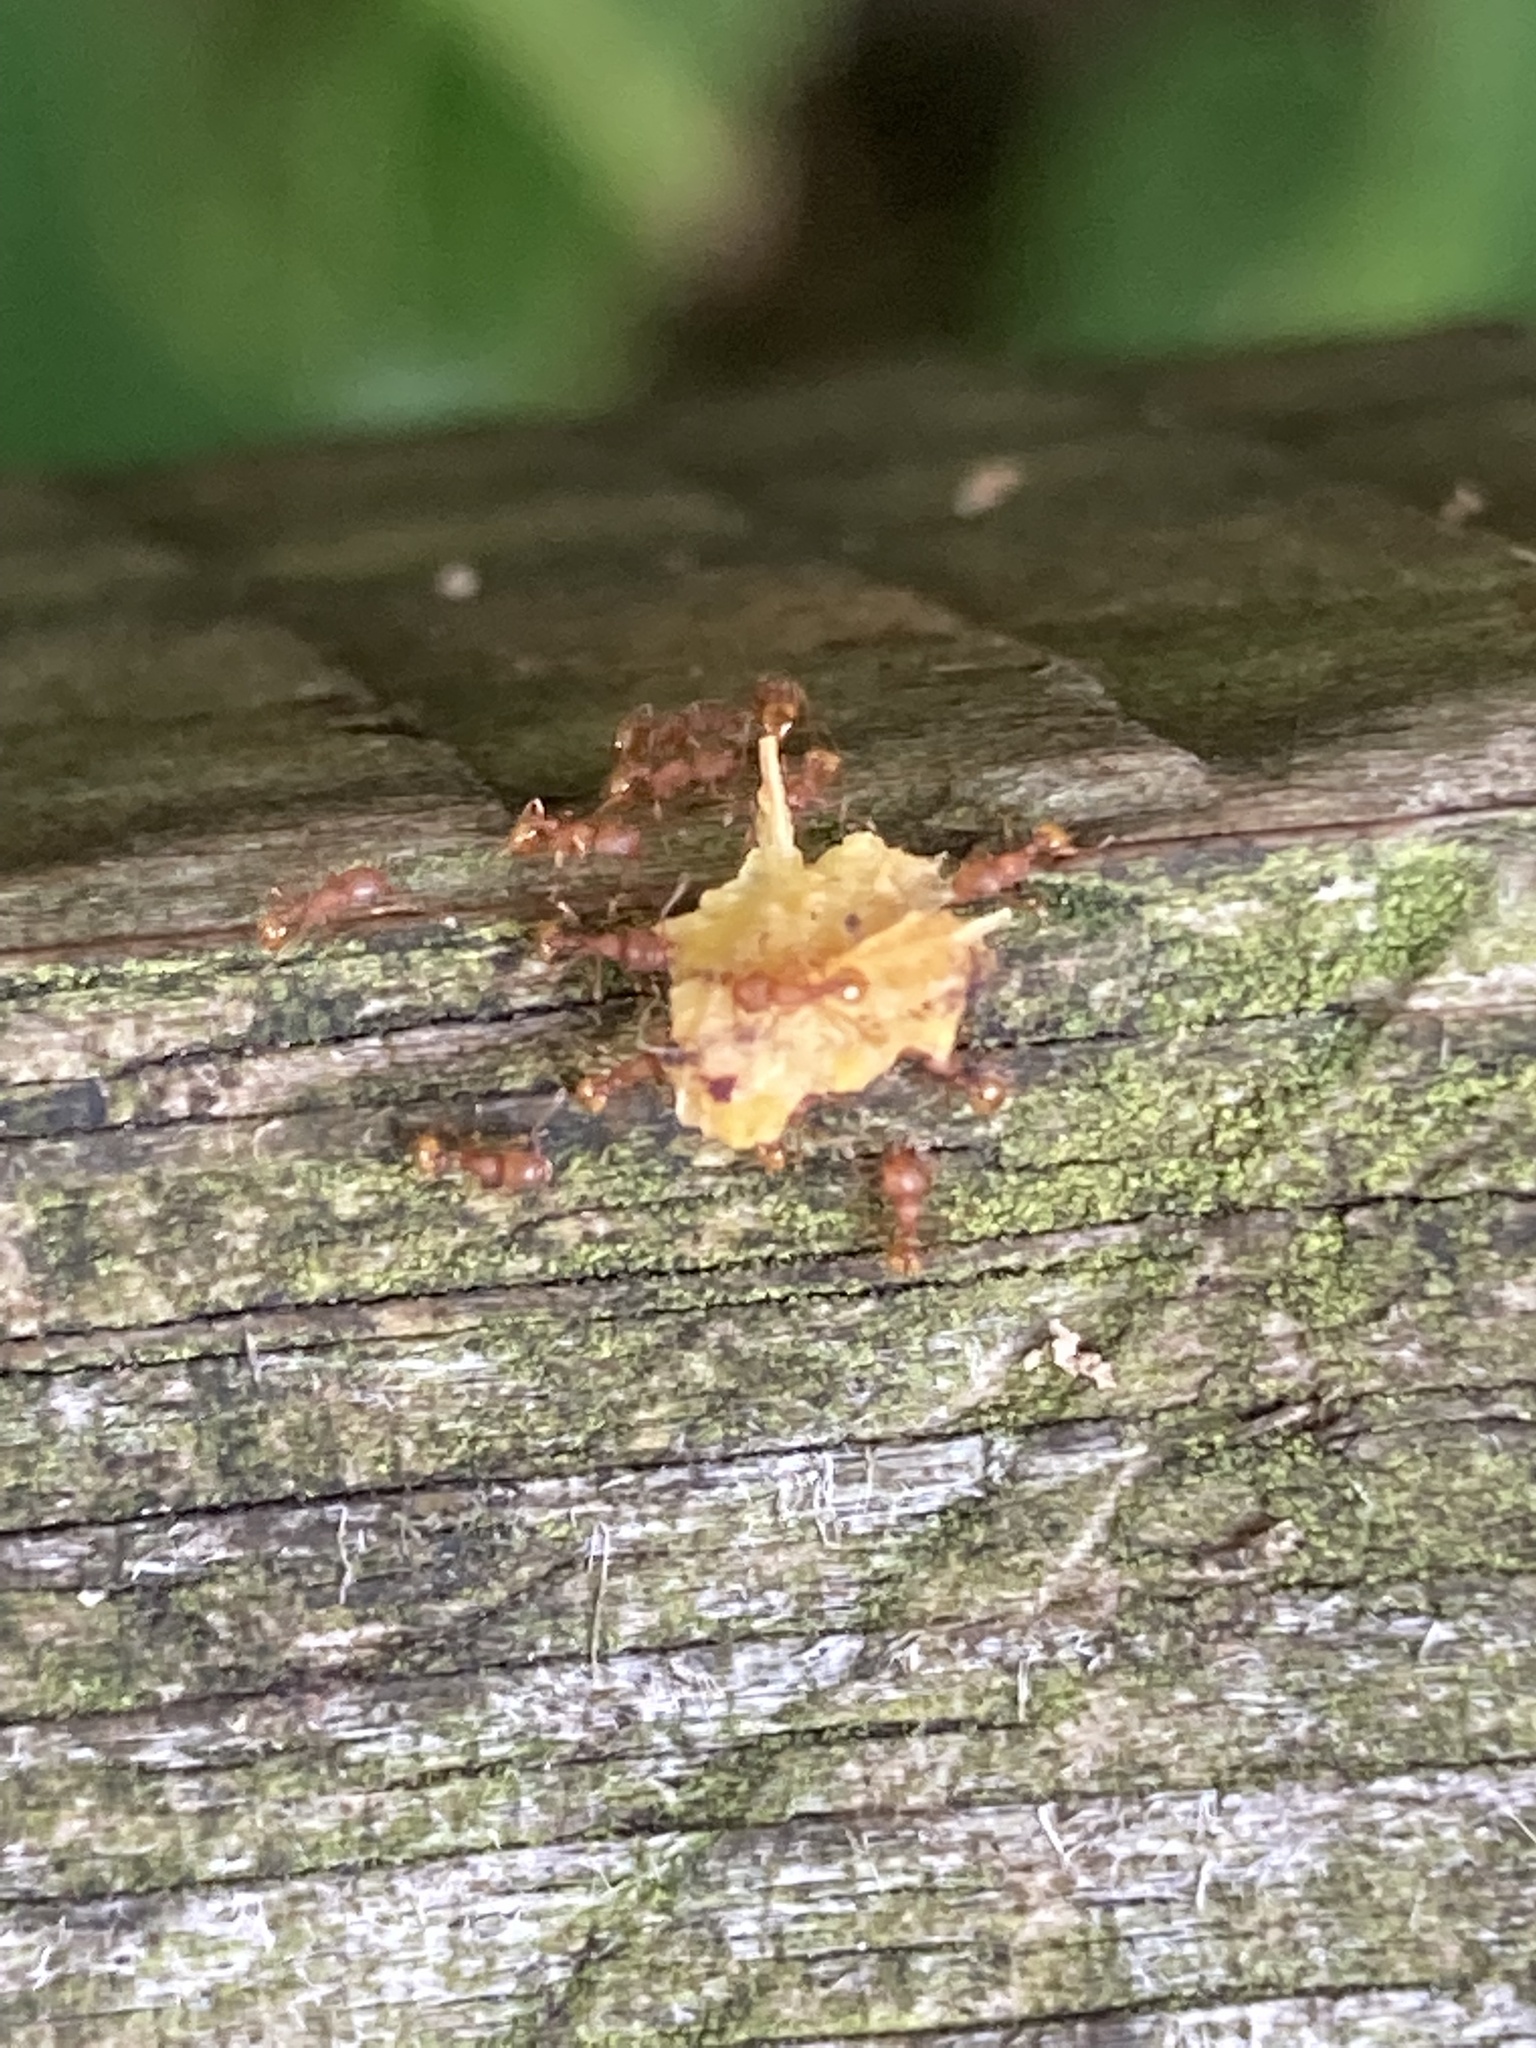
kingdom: Animalia
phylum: Arthropoda
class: Insecta
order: Hymenoptera
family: Formicidae
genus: Wasmannia
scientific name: Wasmannia auropunctata
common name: Little fire ant
